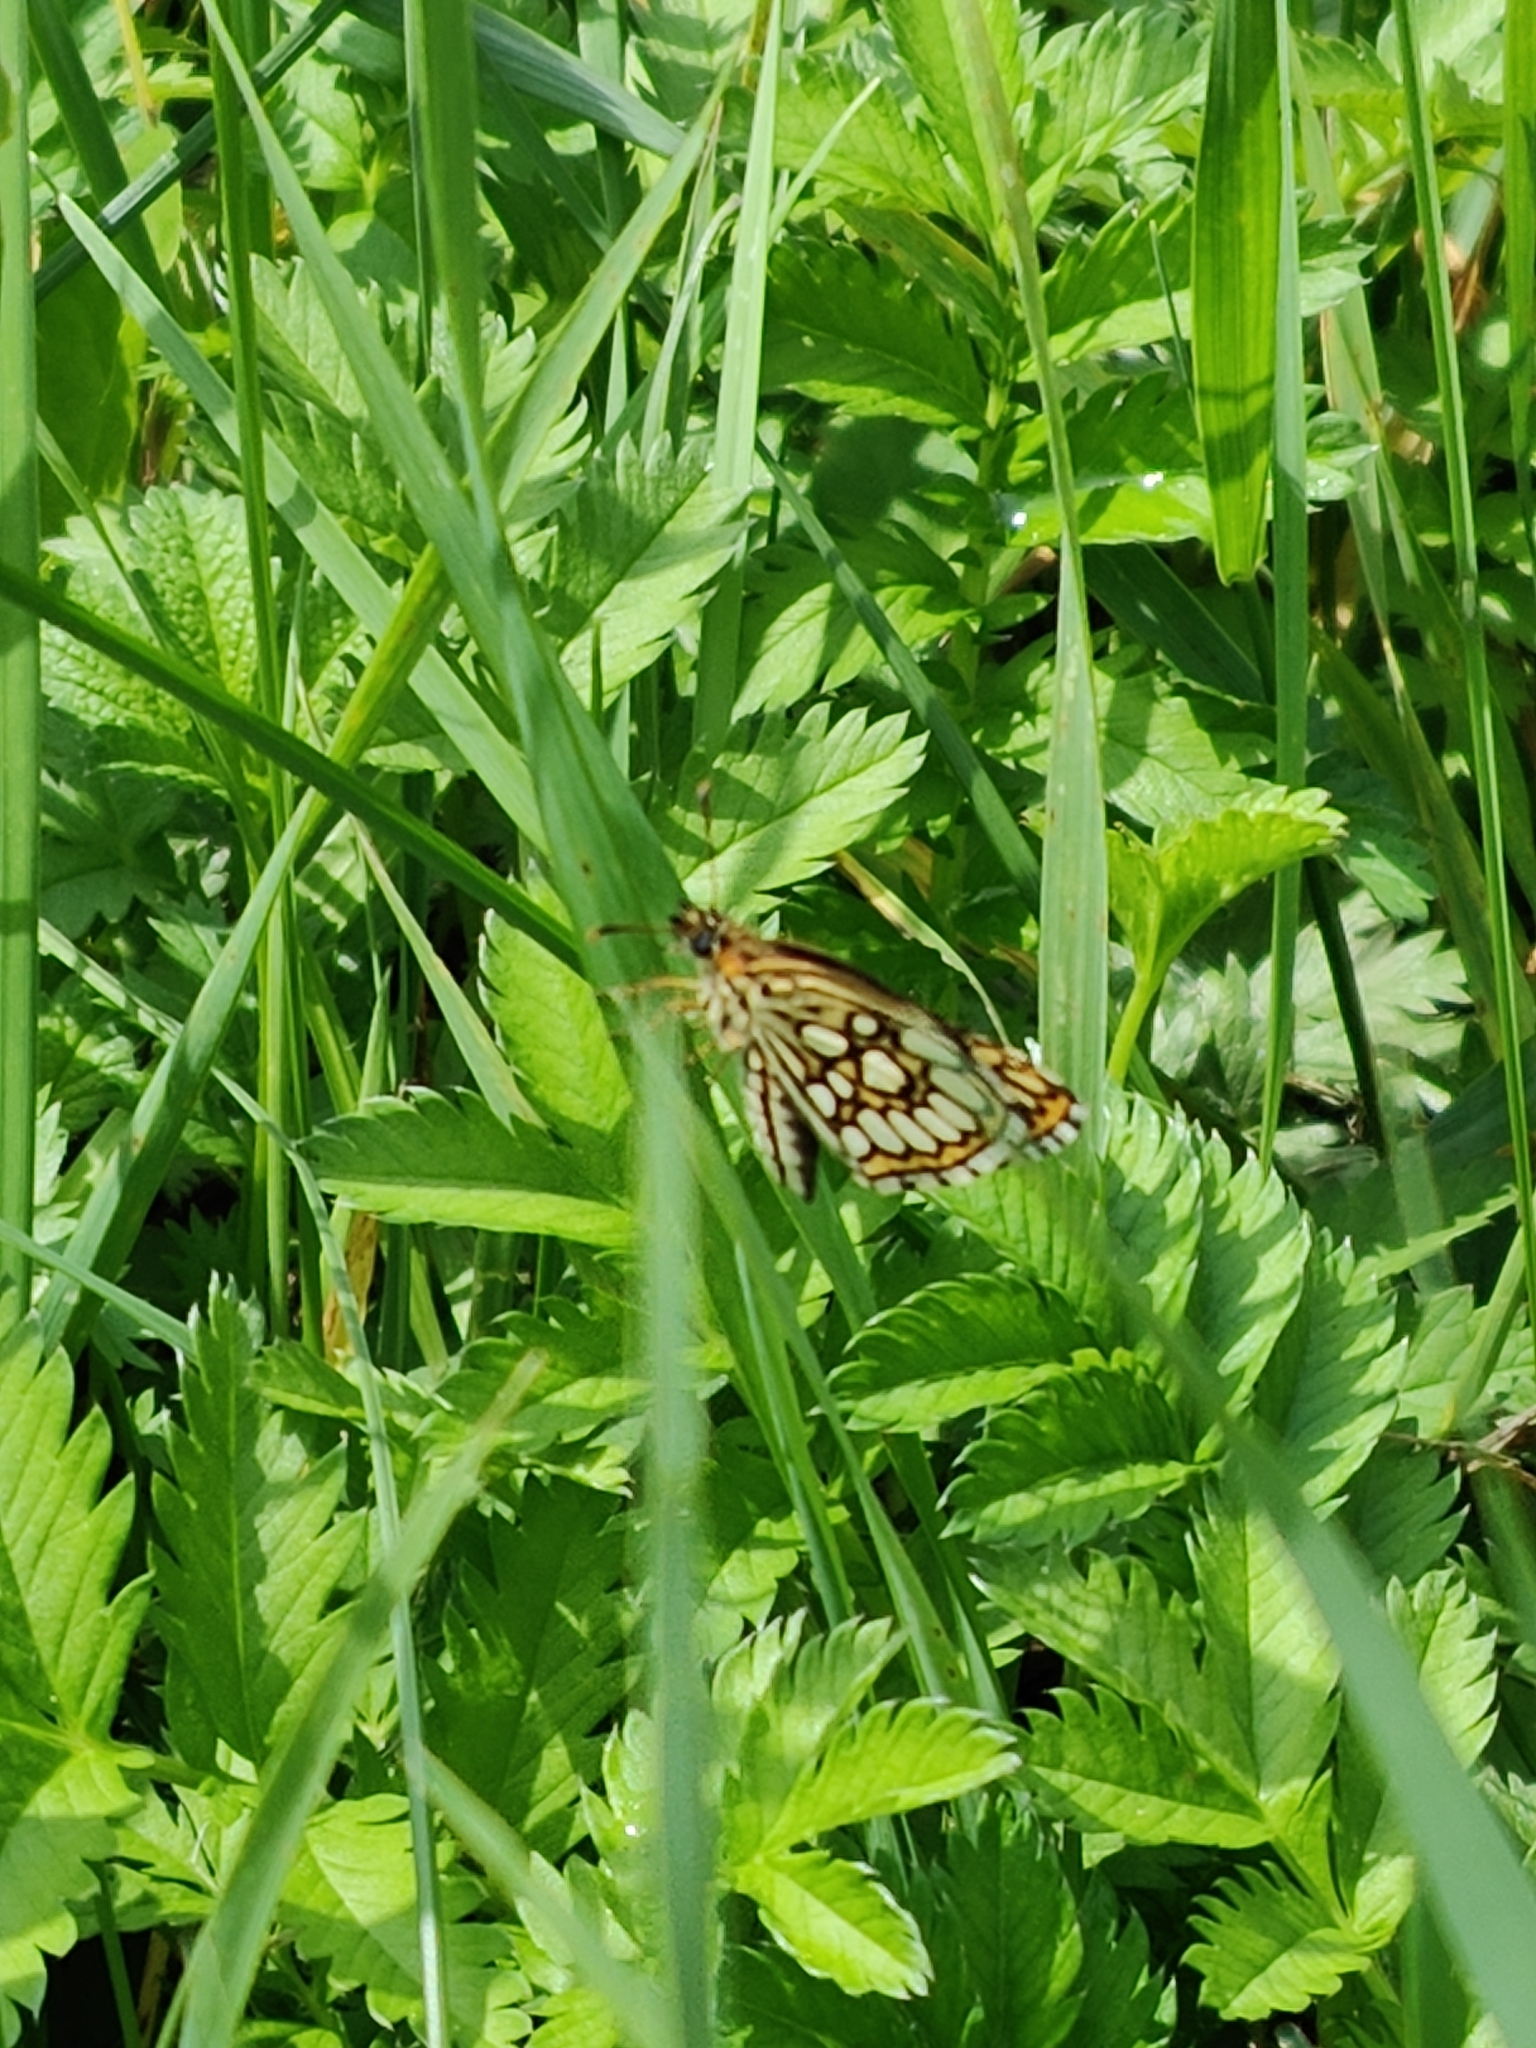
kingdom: Animalia
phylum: Arthropoda
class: Insecta
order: Lepidoptera
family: Hesperiidae
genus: Heteropterus
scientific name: Heteropterus morpheus
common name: Large chequered skipper
